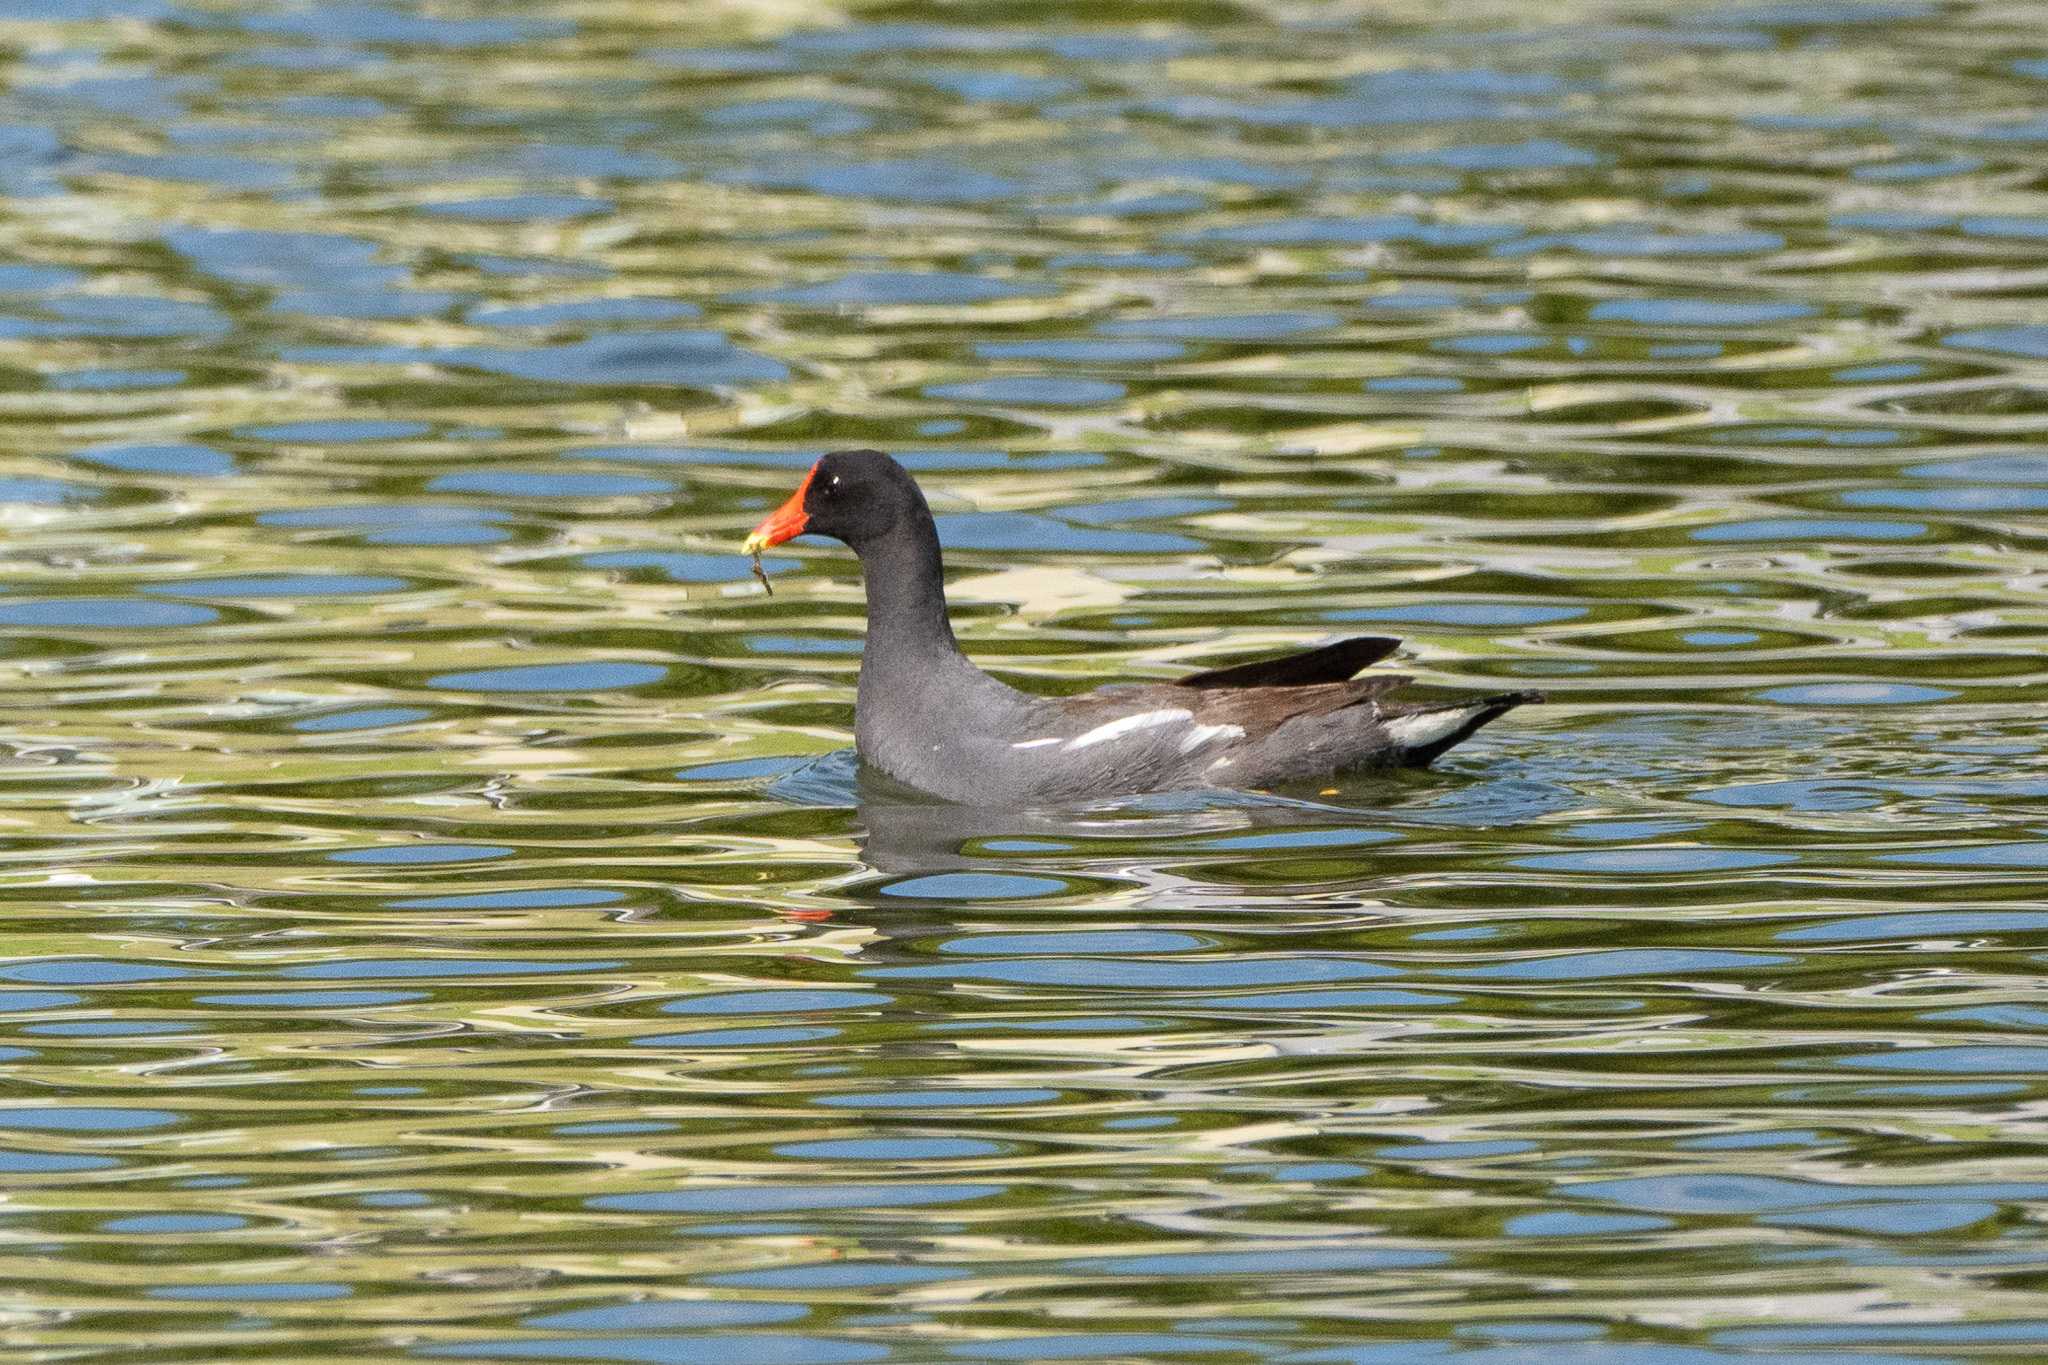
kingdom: Animalia
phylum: Chordata
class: Aves
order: Gruiformes
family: Rallidae
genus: Gallinula
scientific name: Gallinula chloropus
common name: Common moorhen
